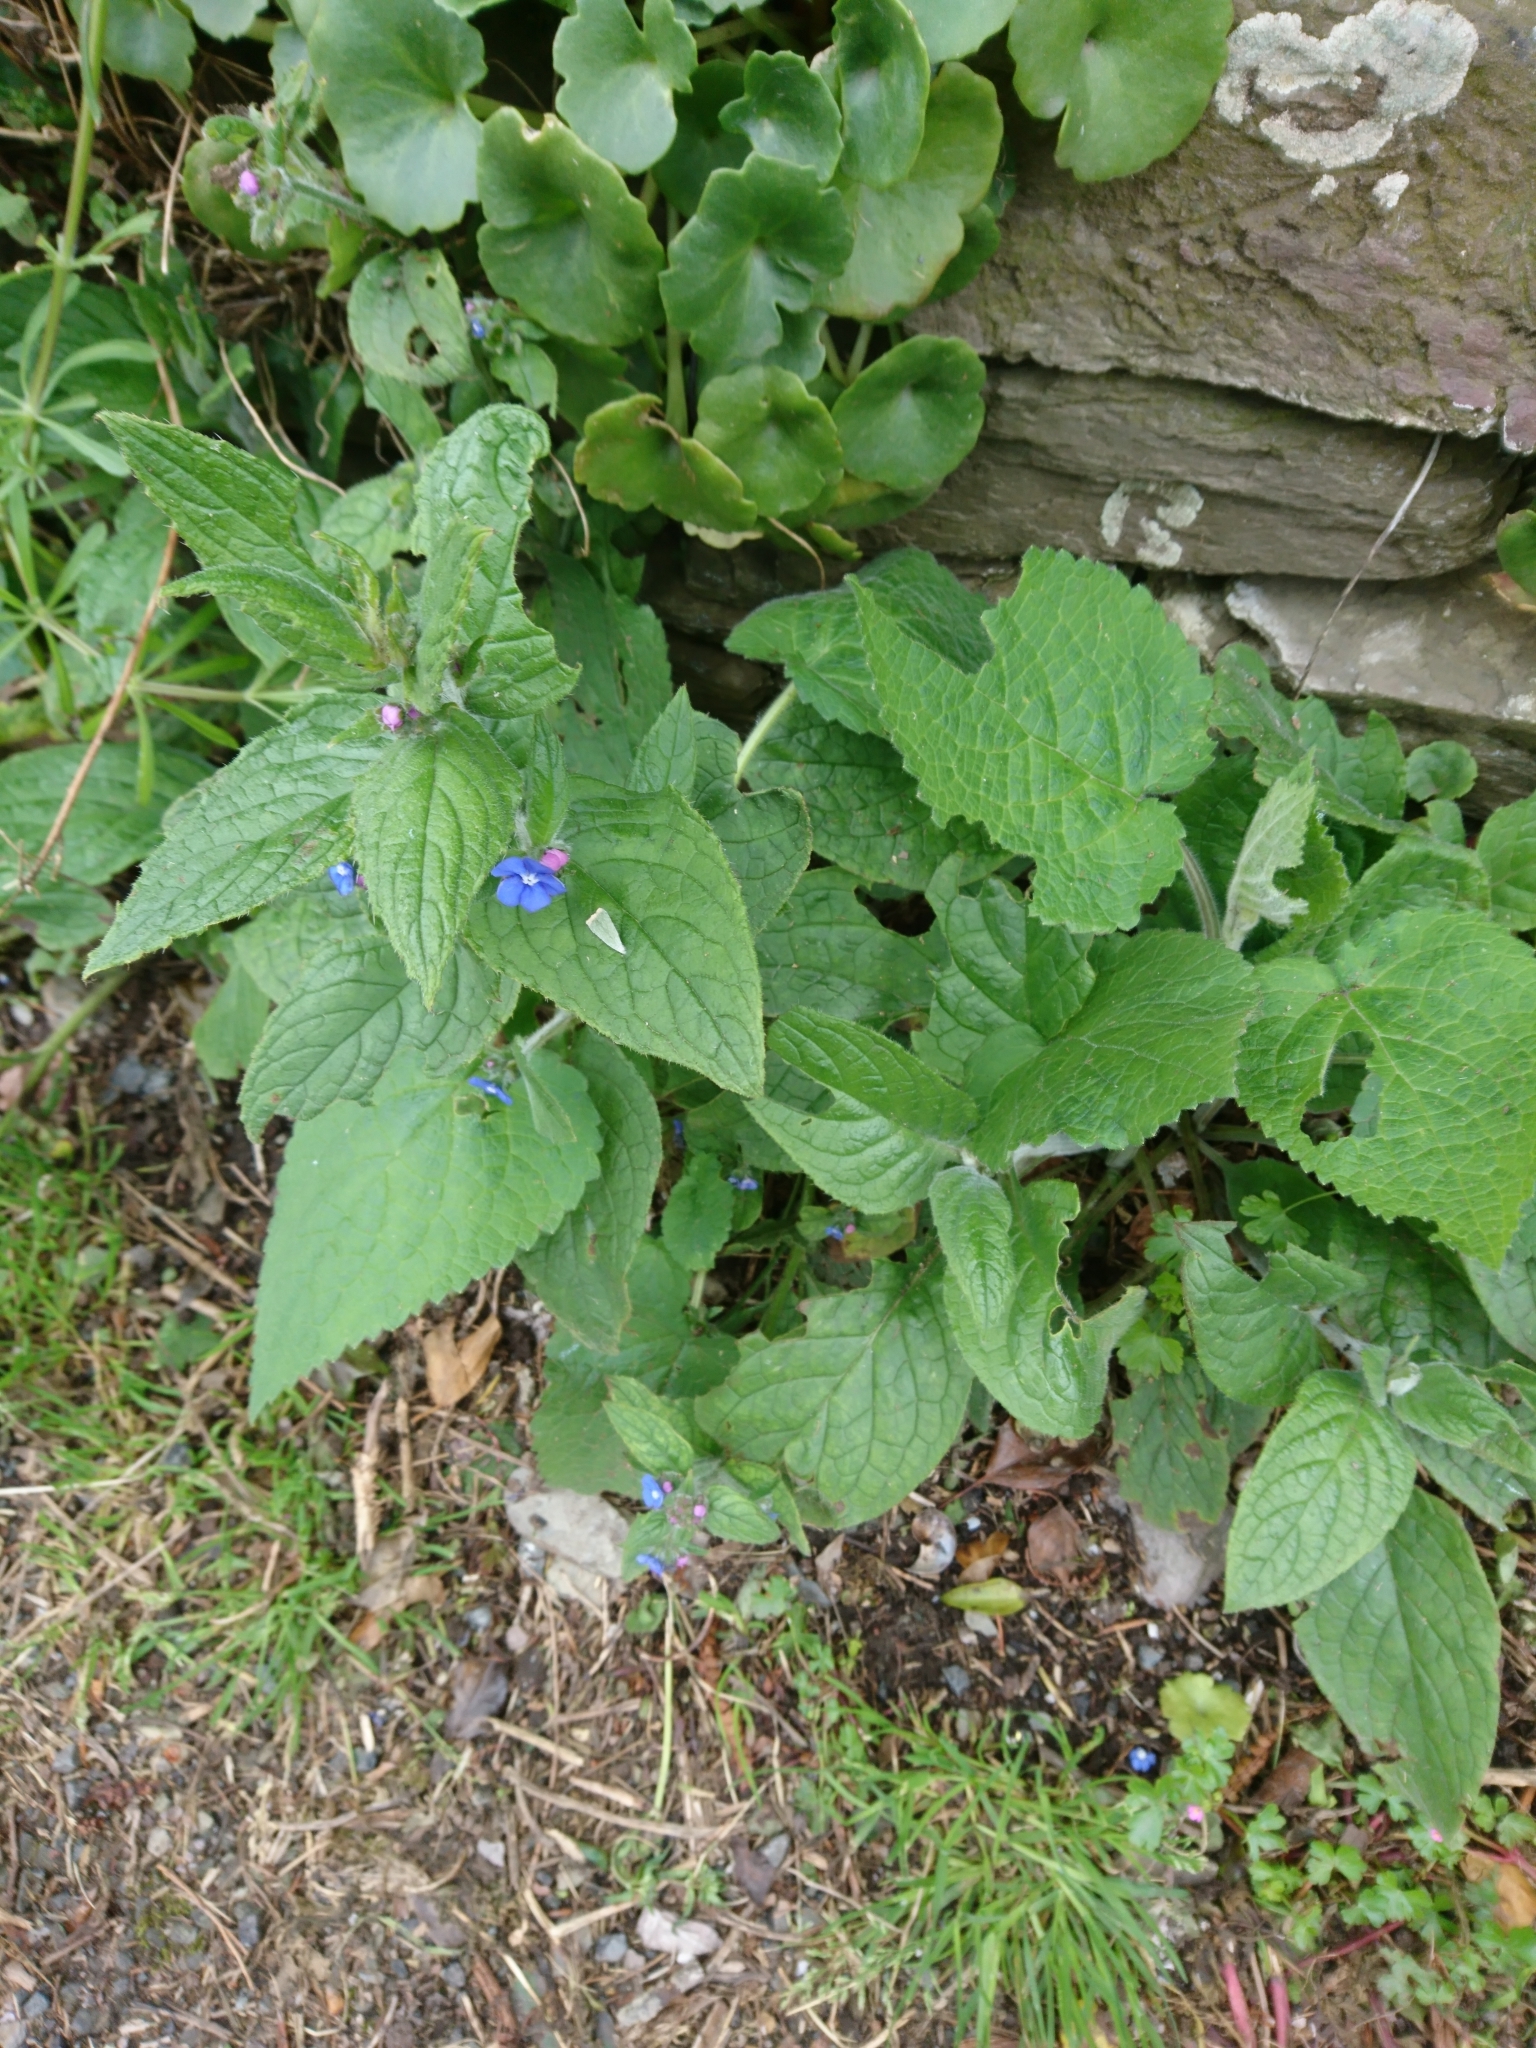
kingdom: Plantae
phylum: Tracheophyta
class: Magnoliopsida
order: Boraginales
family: Boraginaceae
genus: Pentaglottis
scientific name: Pentaglottis sempervirens
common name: Green alkanet
